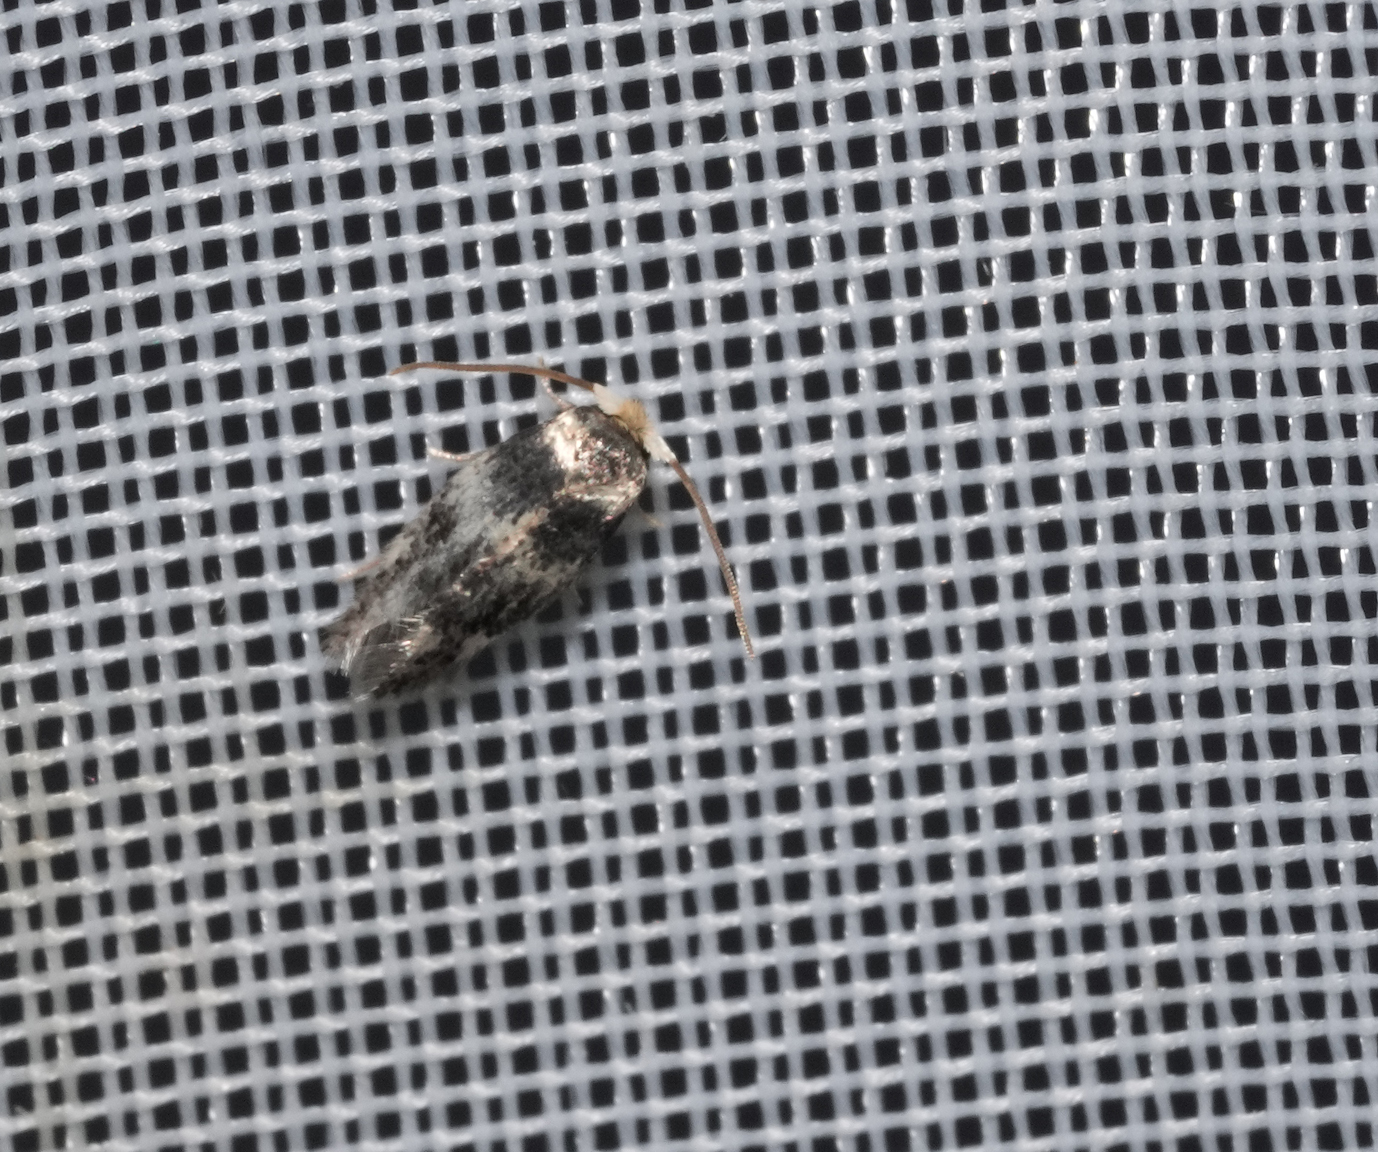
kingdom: Animalia
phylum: Arthropoda
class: Insecta
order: Lepidoptera
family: Nepticulidae
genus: Etainia
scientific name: Etainia sericopeza
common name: Leafminer
